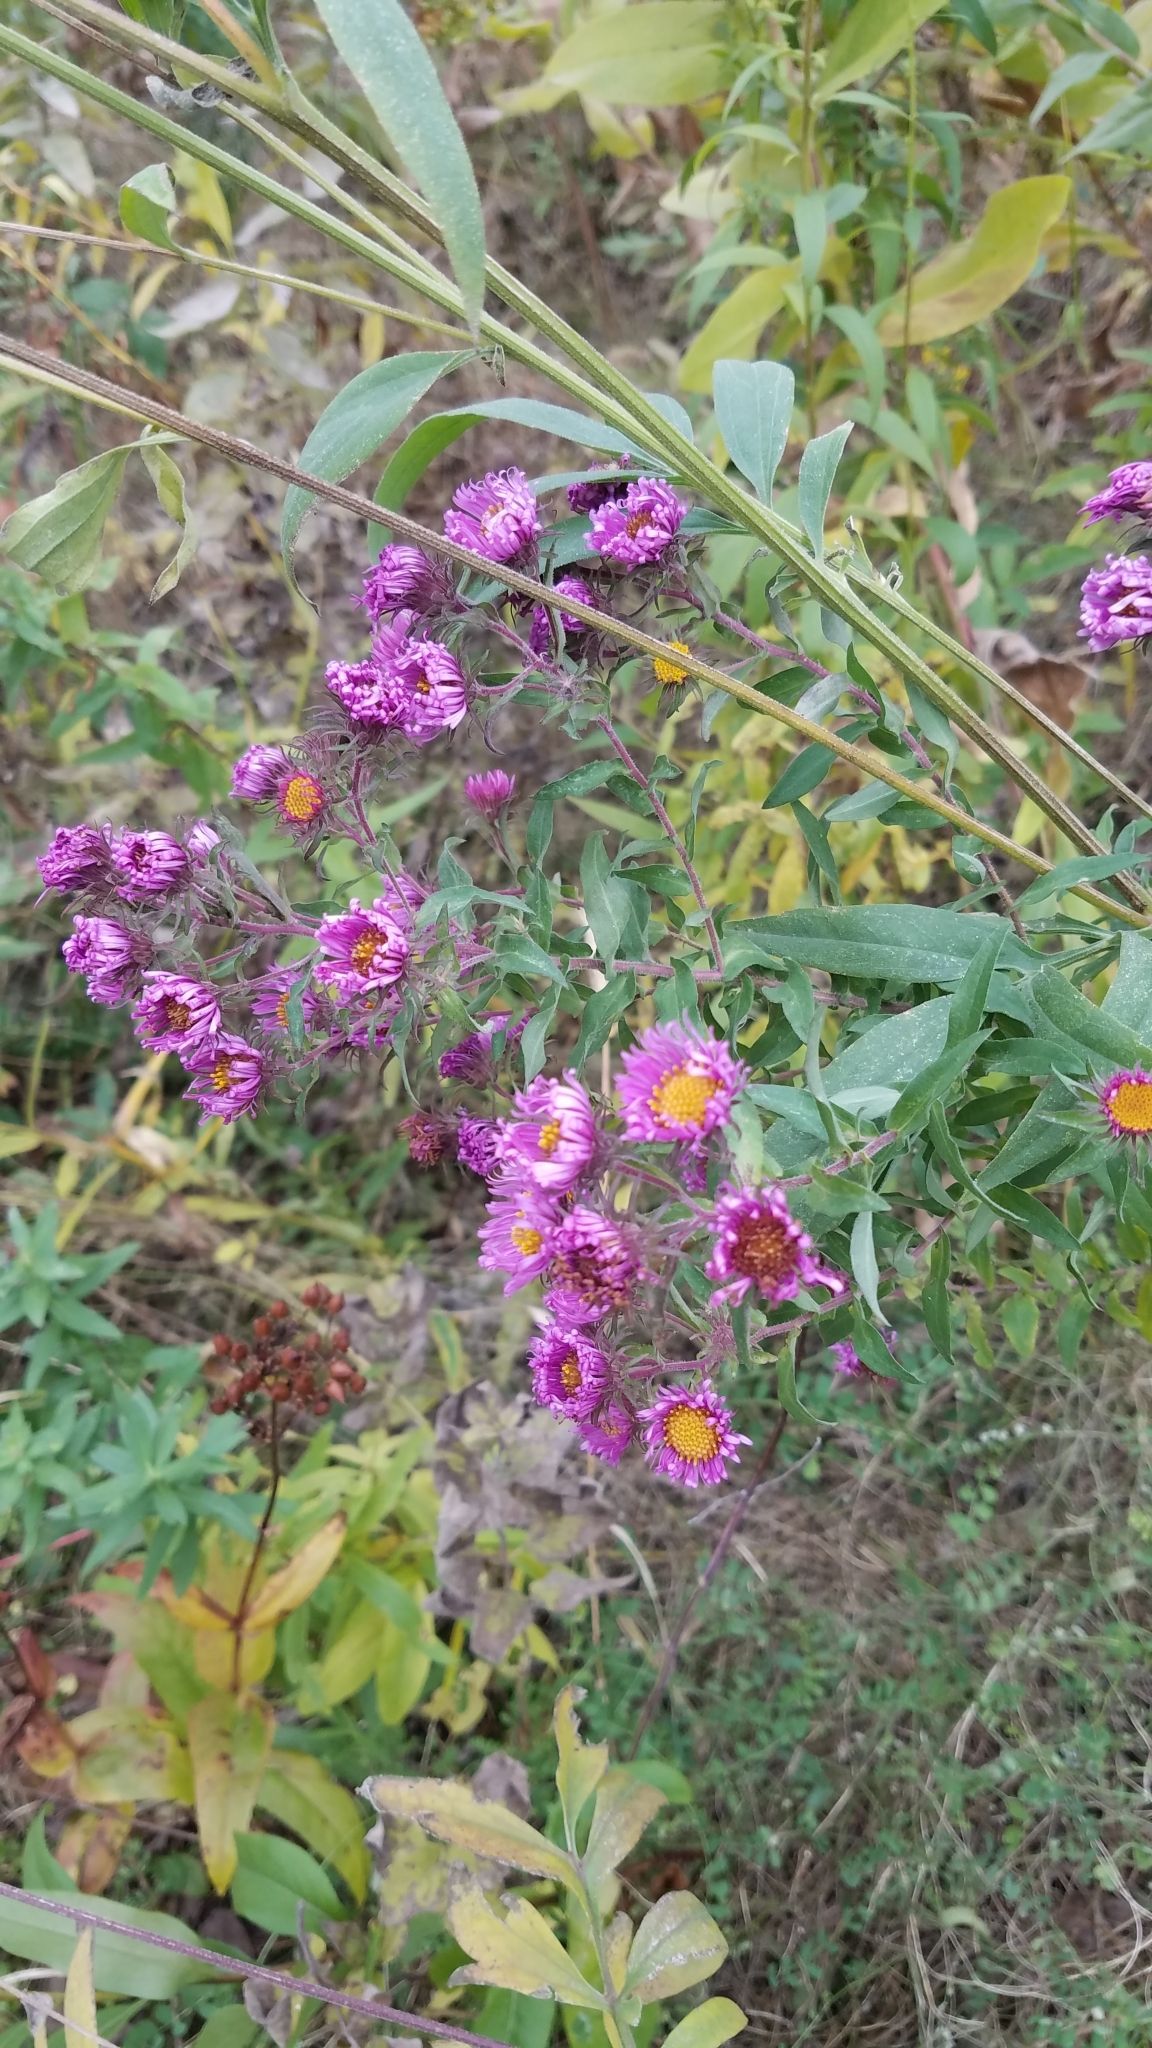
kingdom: Plantae
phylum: Tracheophyta
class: Magnoliopsida
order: Asterales
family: Asteraceae
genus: Symphyotrichum
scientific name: Symphyotrichum novae-angliae
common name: Michaelmas daisy
